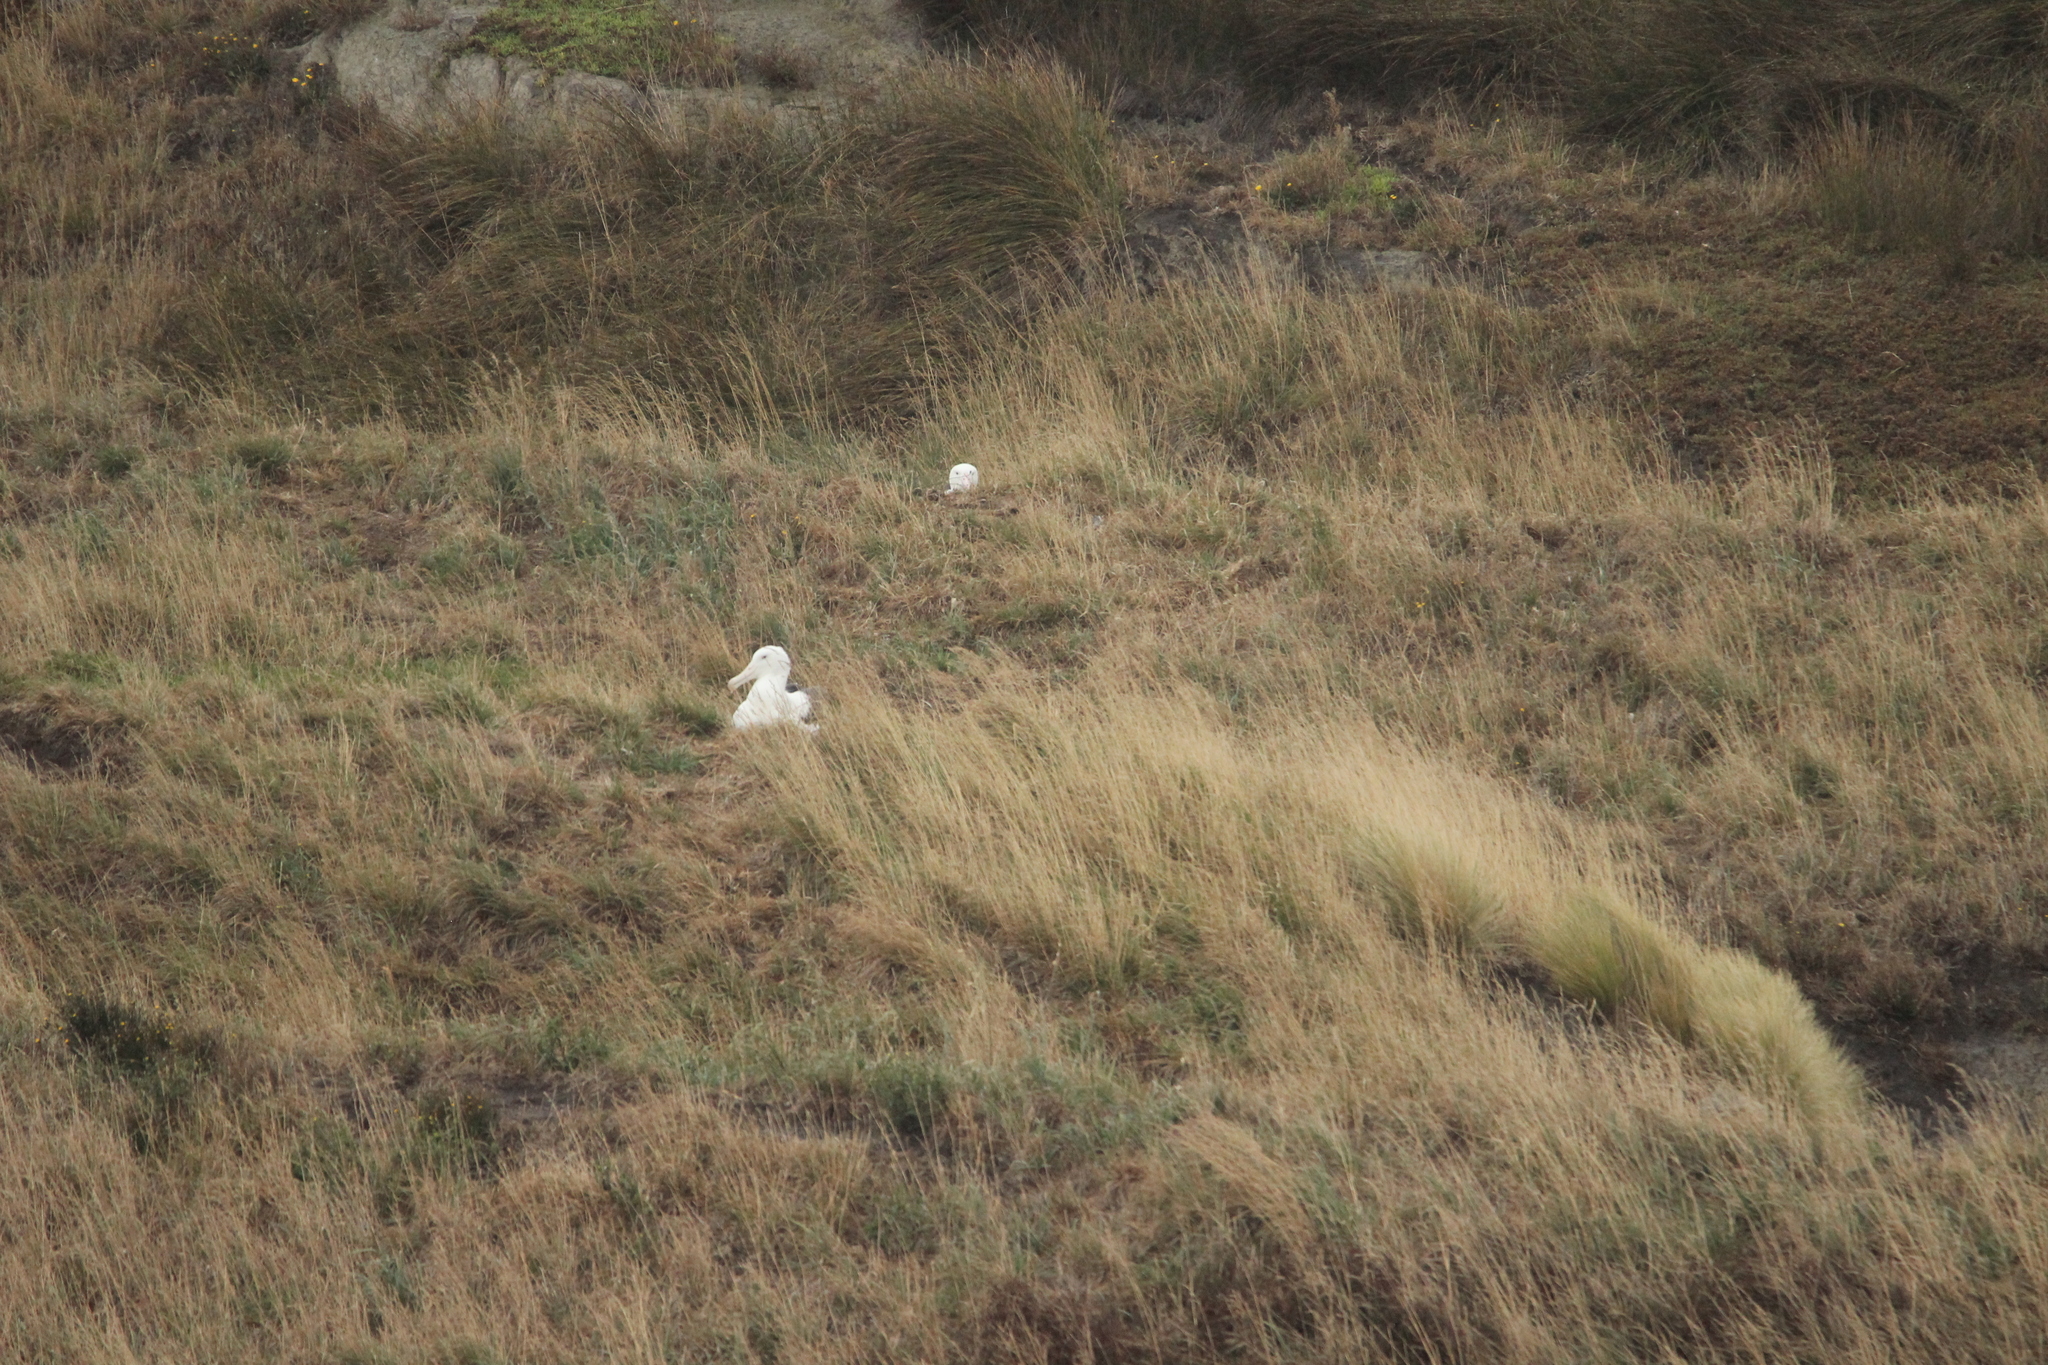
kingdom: Animalia
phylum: Chordata
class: Aves
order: Procellariiformes
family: Diomedeidae
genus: Diomedea
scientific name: Diomedea sanfordi
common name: Northern royal albatross
